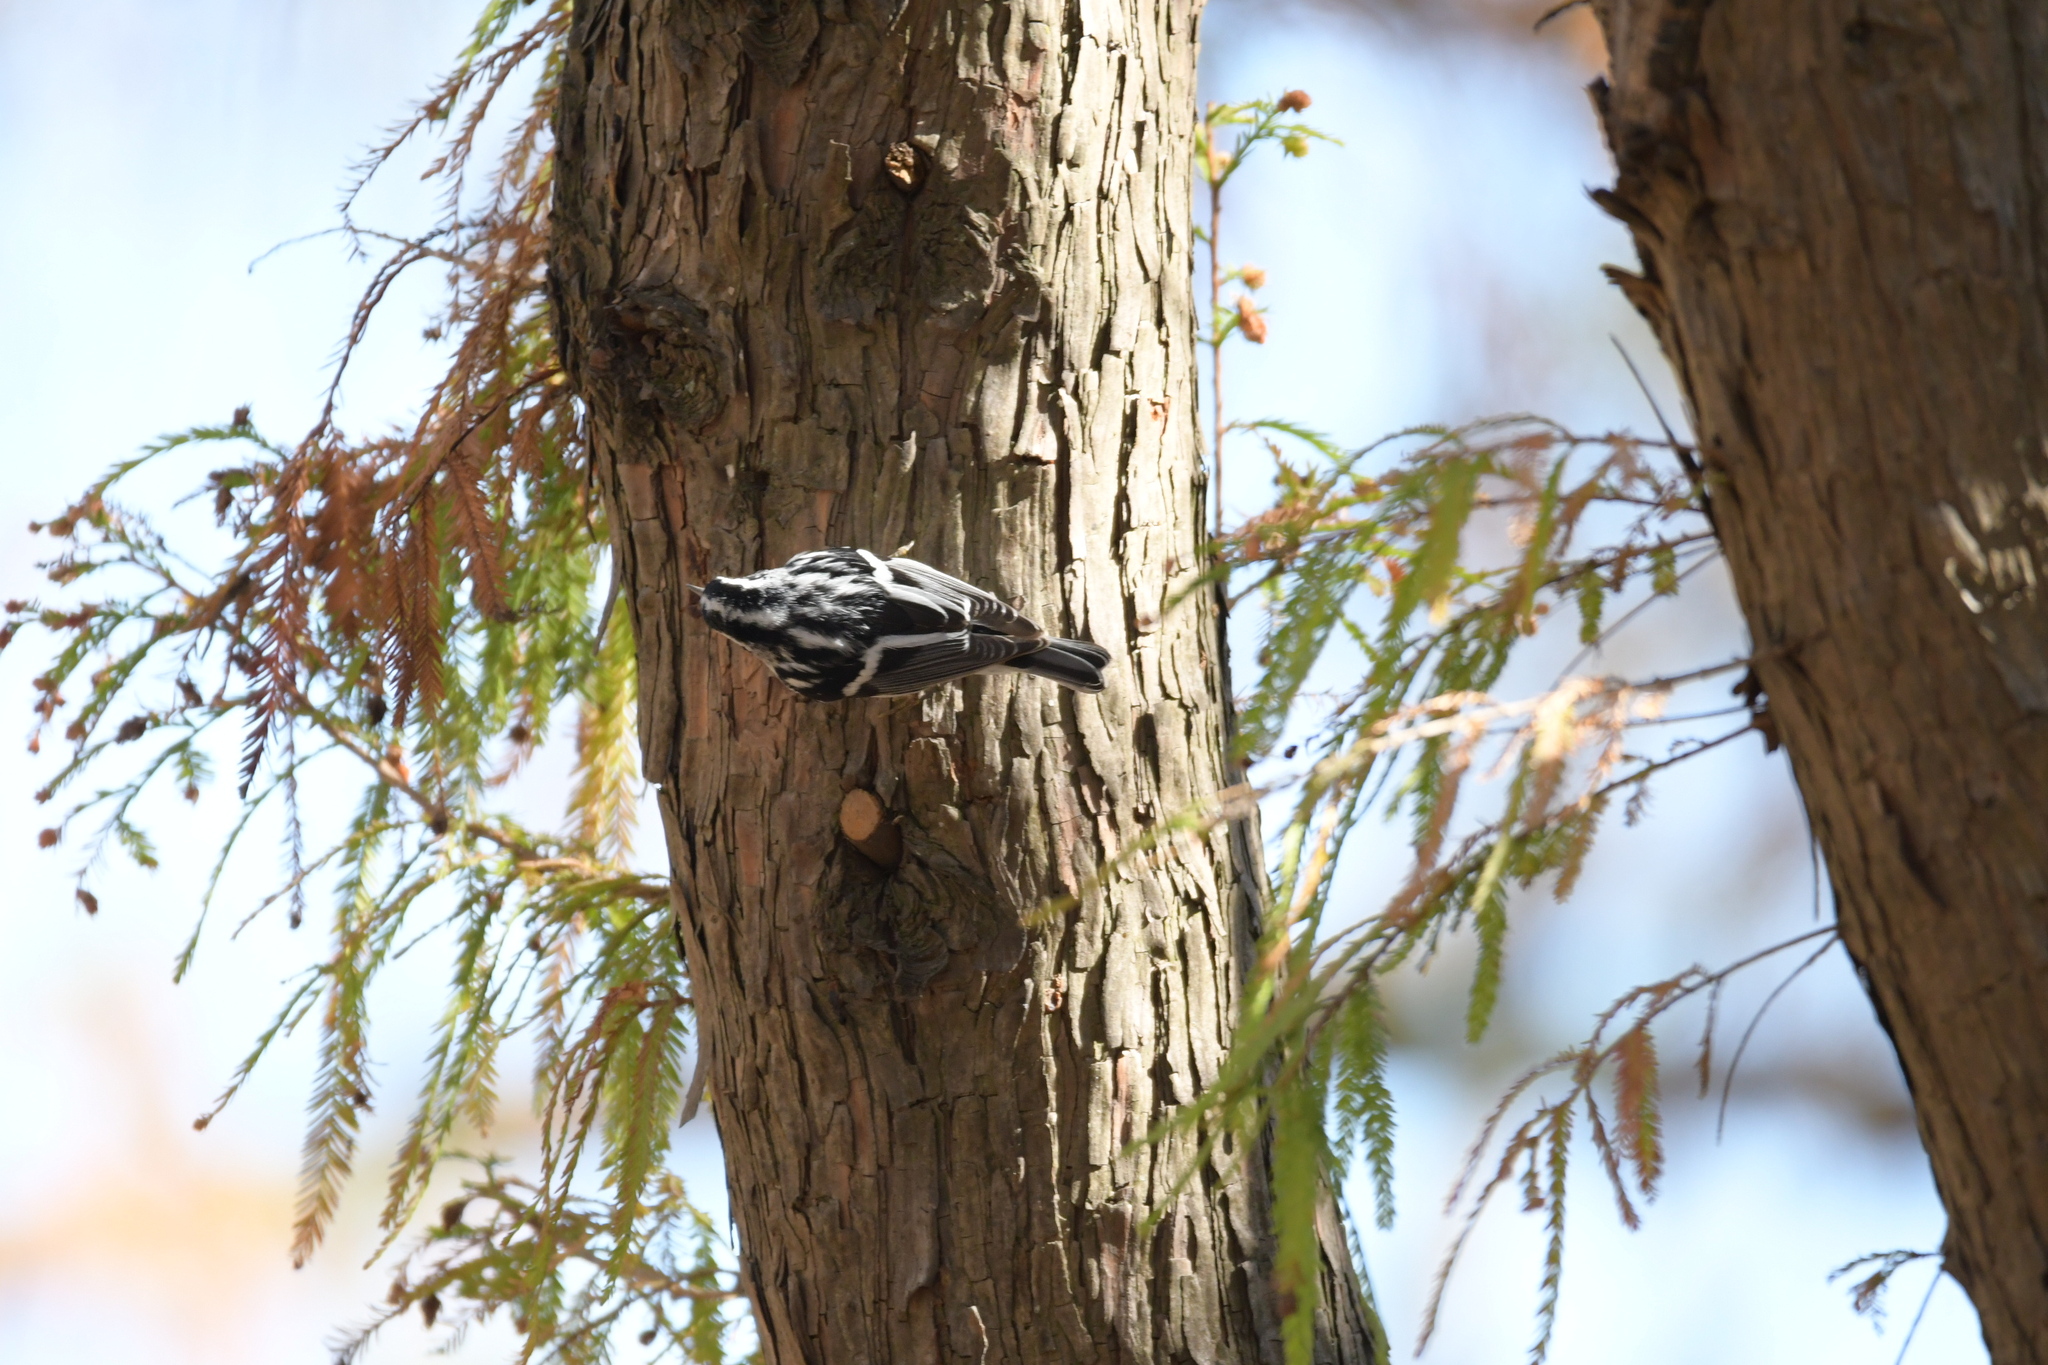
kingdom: Animalia
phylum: Chordata
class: Aves
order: Passeriformes
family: Parulidae
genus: Mniotilta
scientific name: Mniotilta varia
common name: Black-and-white warbler
